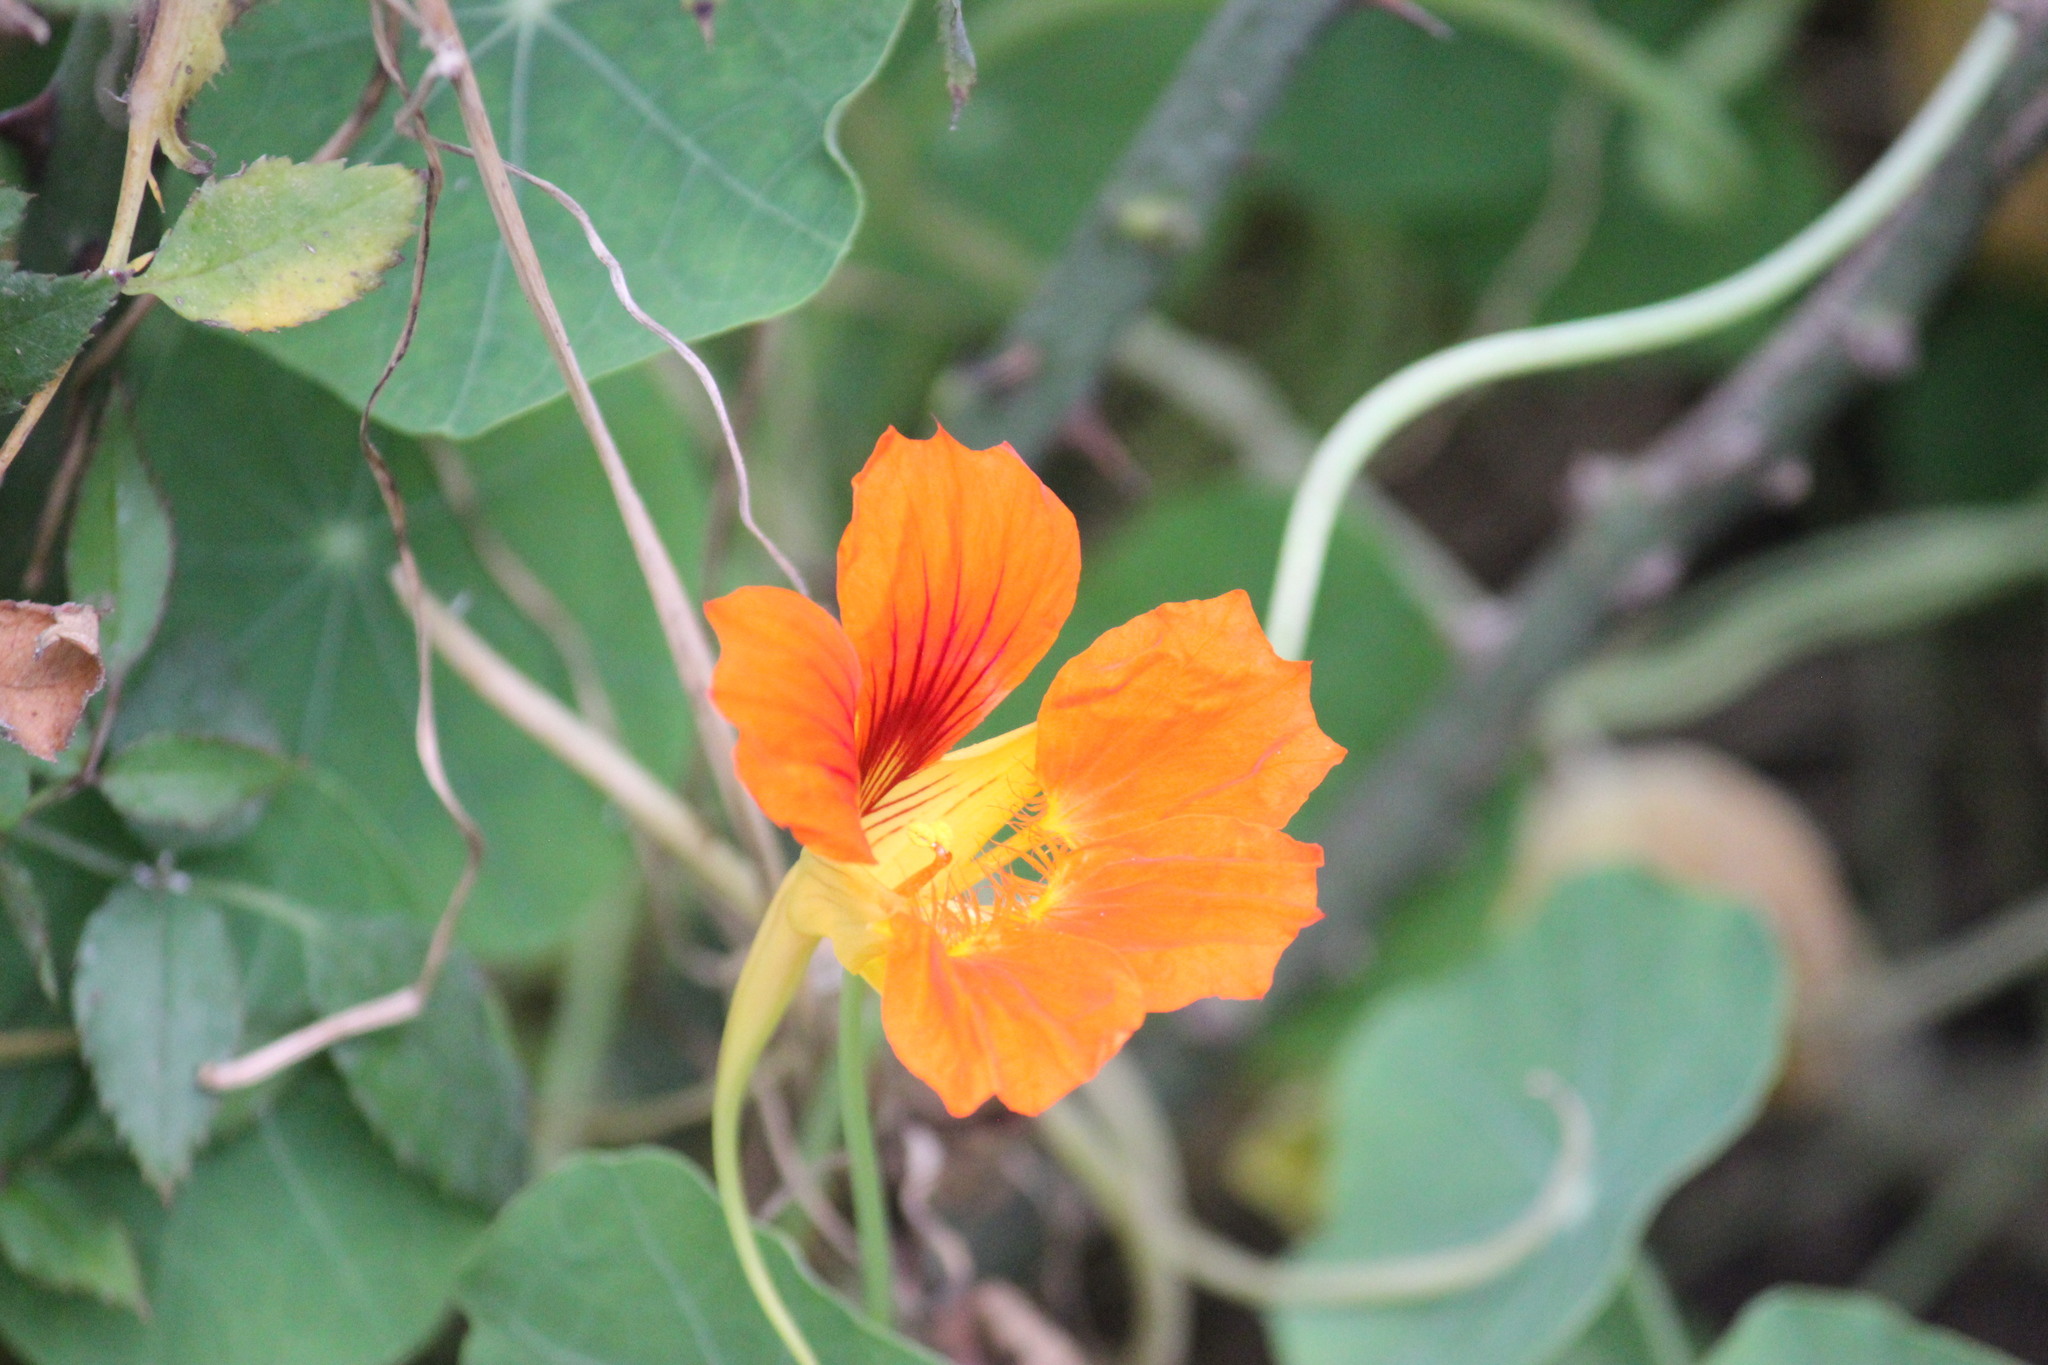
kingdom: Plantae
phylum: Tracheophyta
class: Magnoliopsida
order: Brassicales
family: Tropaeolaceae
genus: Tropaeolum
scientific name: Tropaeolum majus
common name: Nasturtium
